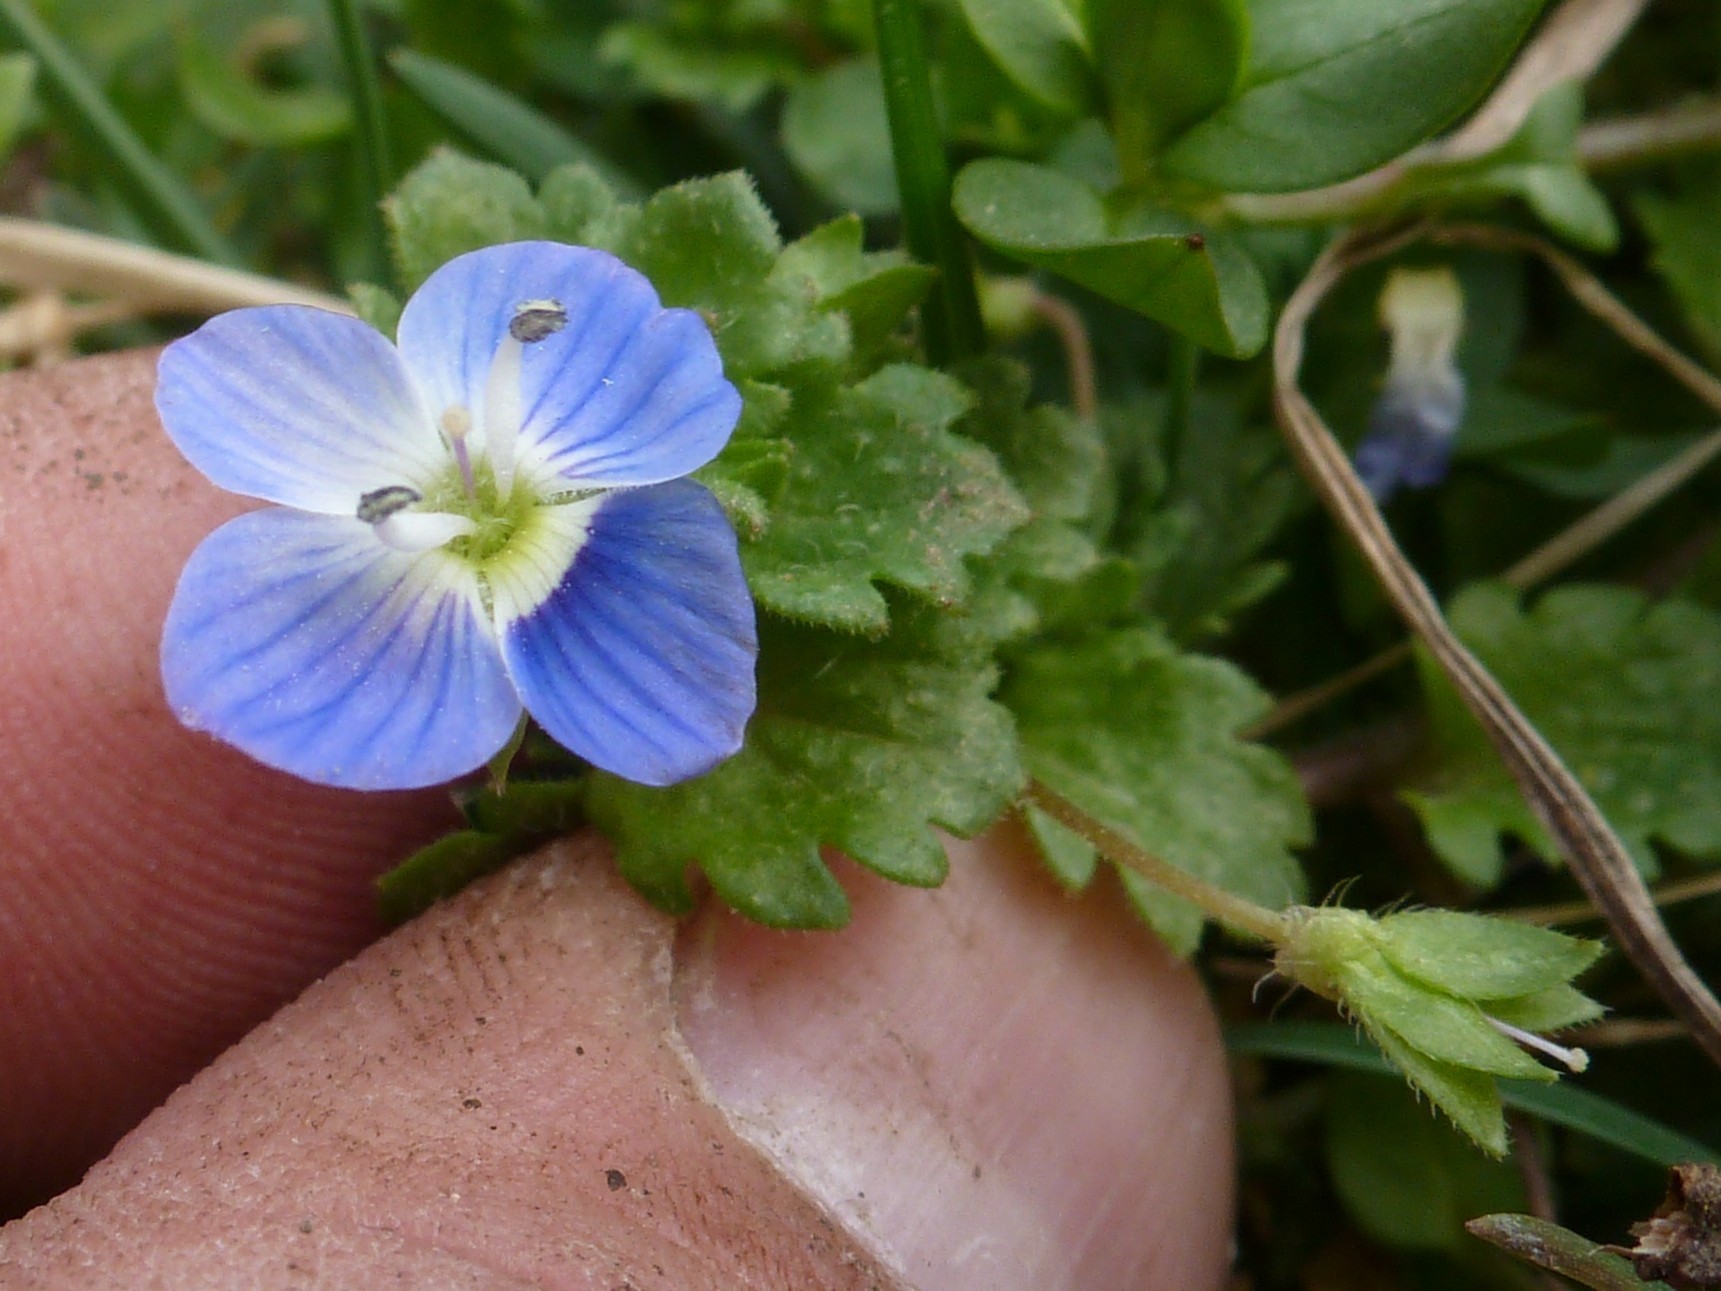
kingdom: Plantae
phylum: Tracheophyta
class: Magnoliopsida
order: Lamiales
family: Plantaginaceae
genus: Veronica
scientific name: Veronica persica
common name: Common field-speedwell
